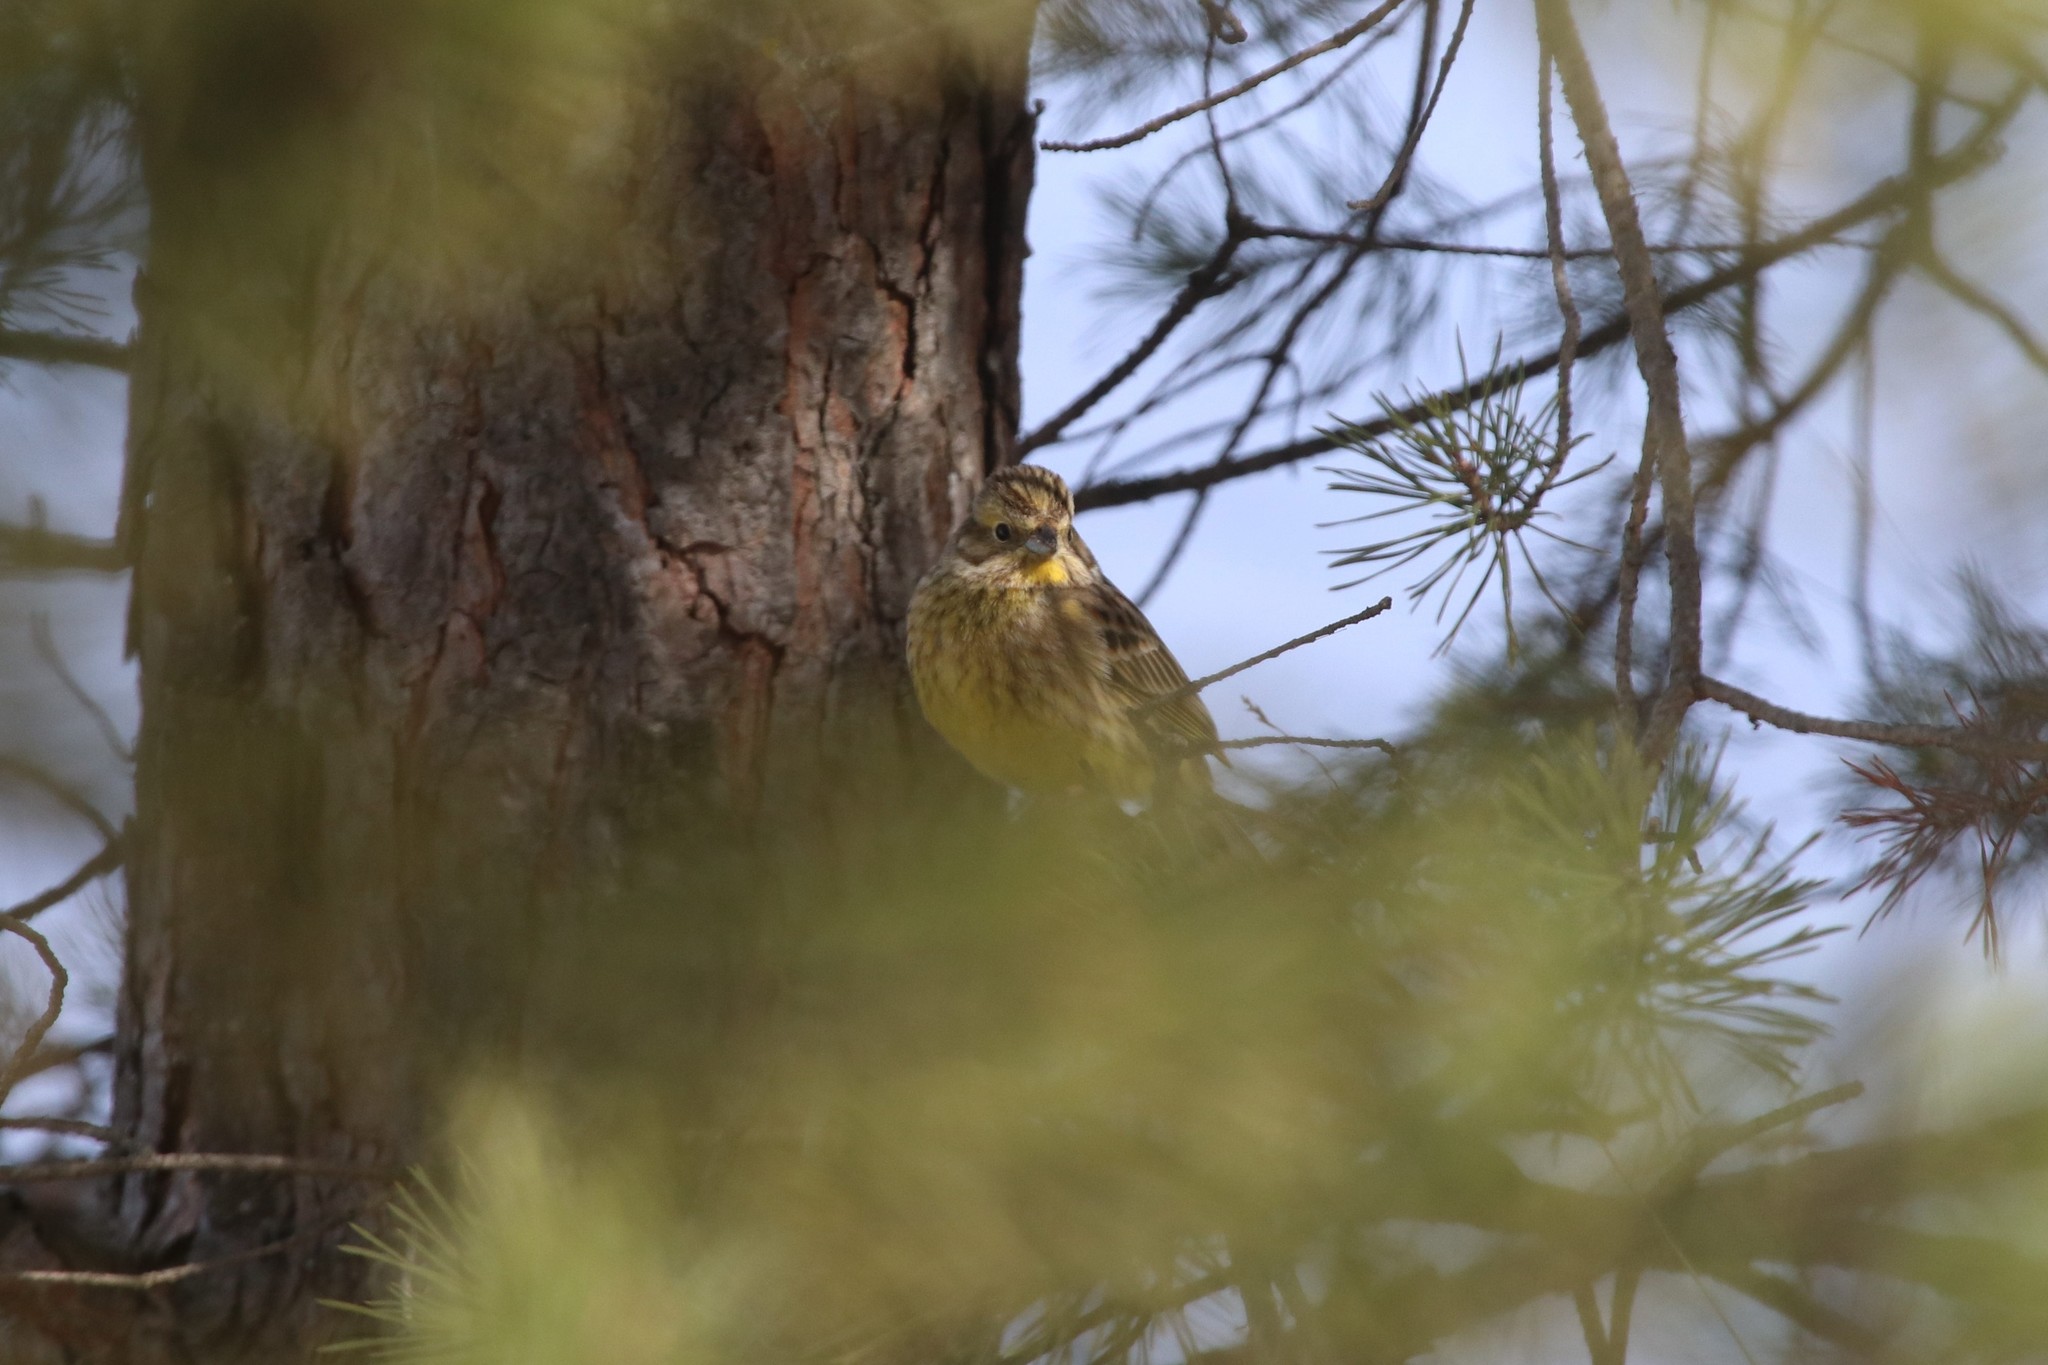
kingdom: Animalia
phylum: Chordata
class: Aves
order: Passeriformes
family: Emberizidae
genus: Emberiza
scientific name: Emberiza citrinella
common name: Yellowhammer
